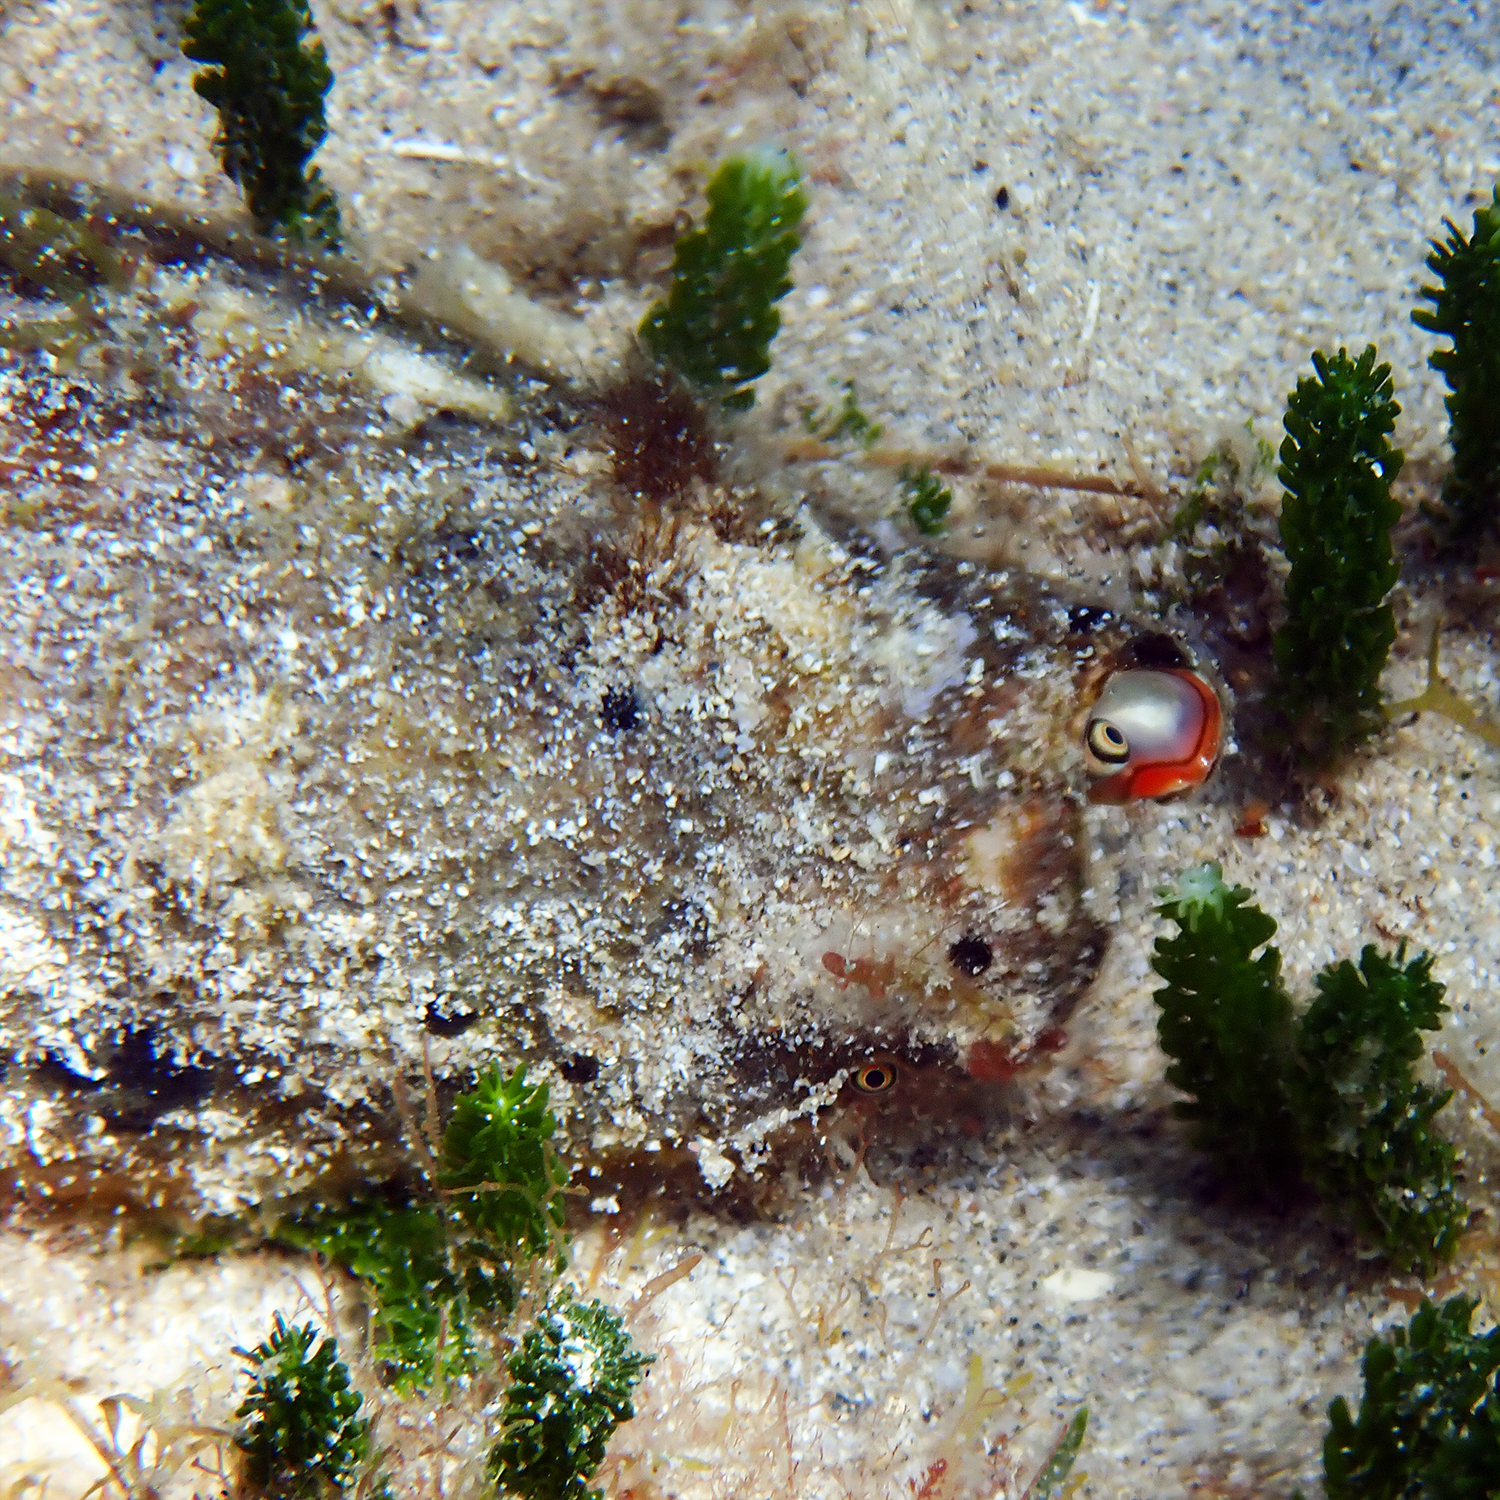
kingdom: Animalia
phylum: Mollusca
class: Gastropoda
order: Littorinimorpha
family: Strombidae
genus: Conomurex
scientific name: Conomurex luhuanus
